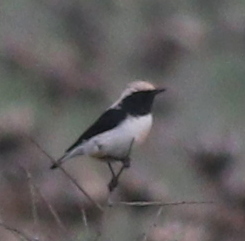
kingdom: Animalia
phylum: Chordata
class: Aves
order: Passeriformes
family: Muscicapidae
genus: Oenanthe
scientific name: Oenanthe hispanica
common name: Black-eared wheatear
